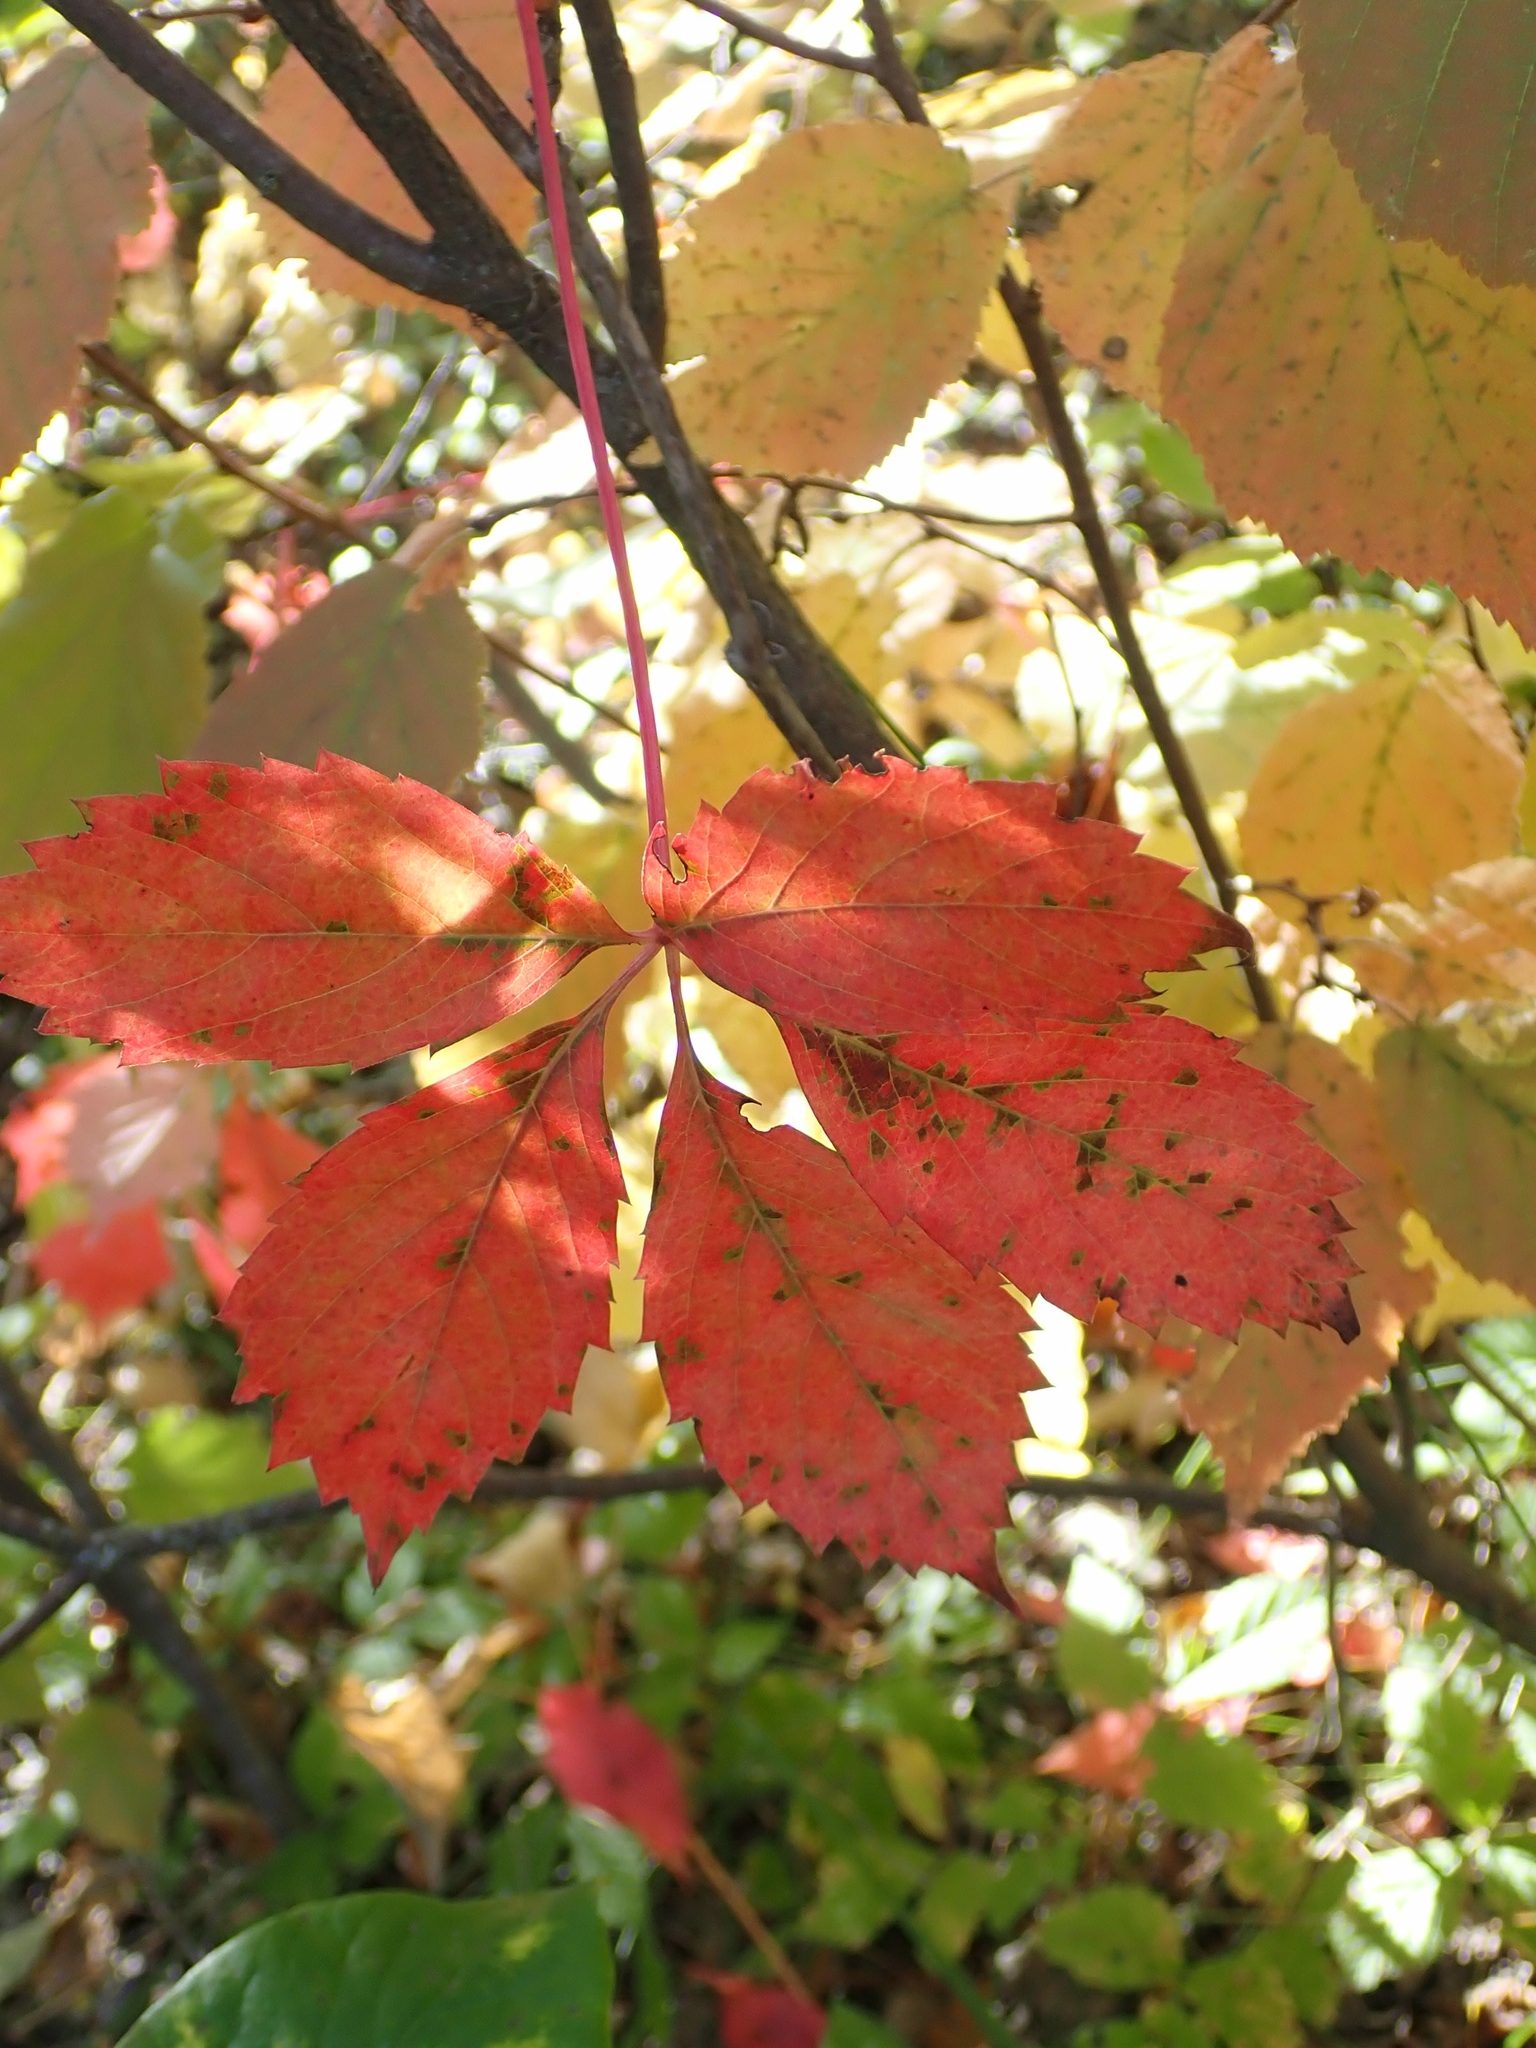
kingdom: Plantae
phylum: Tracheophyta
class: Magnoliopsida
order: Vitales
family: Vitaceae
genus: Parthenocissus
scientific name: Parthenocissus inserta
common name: False virginia-creeper
